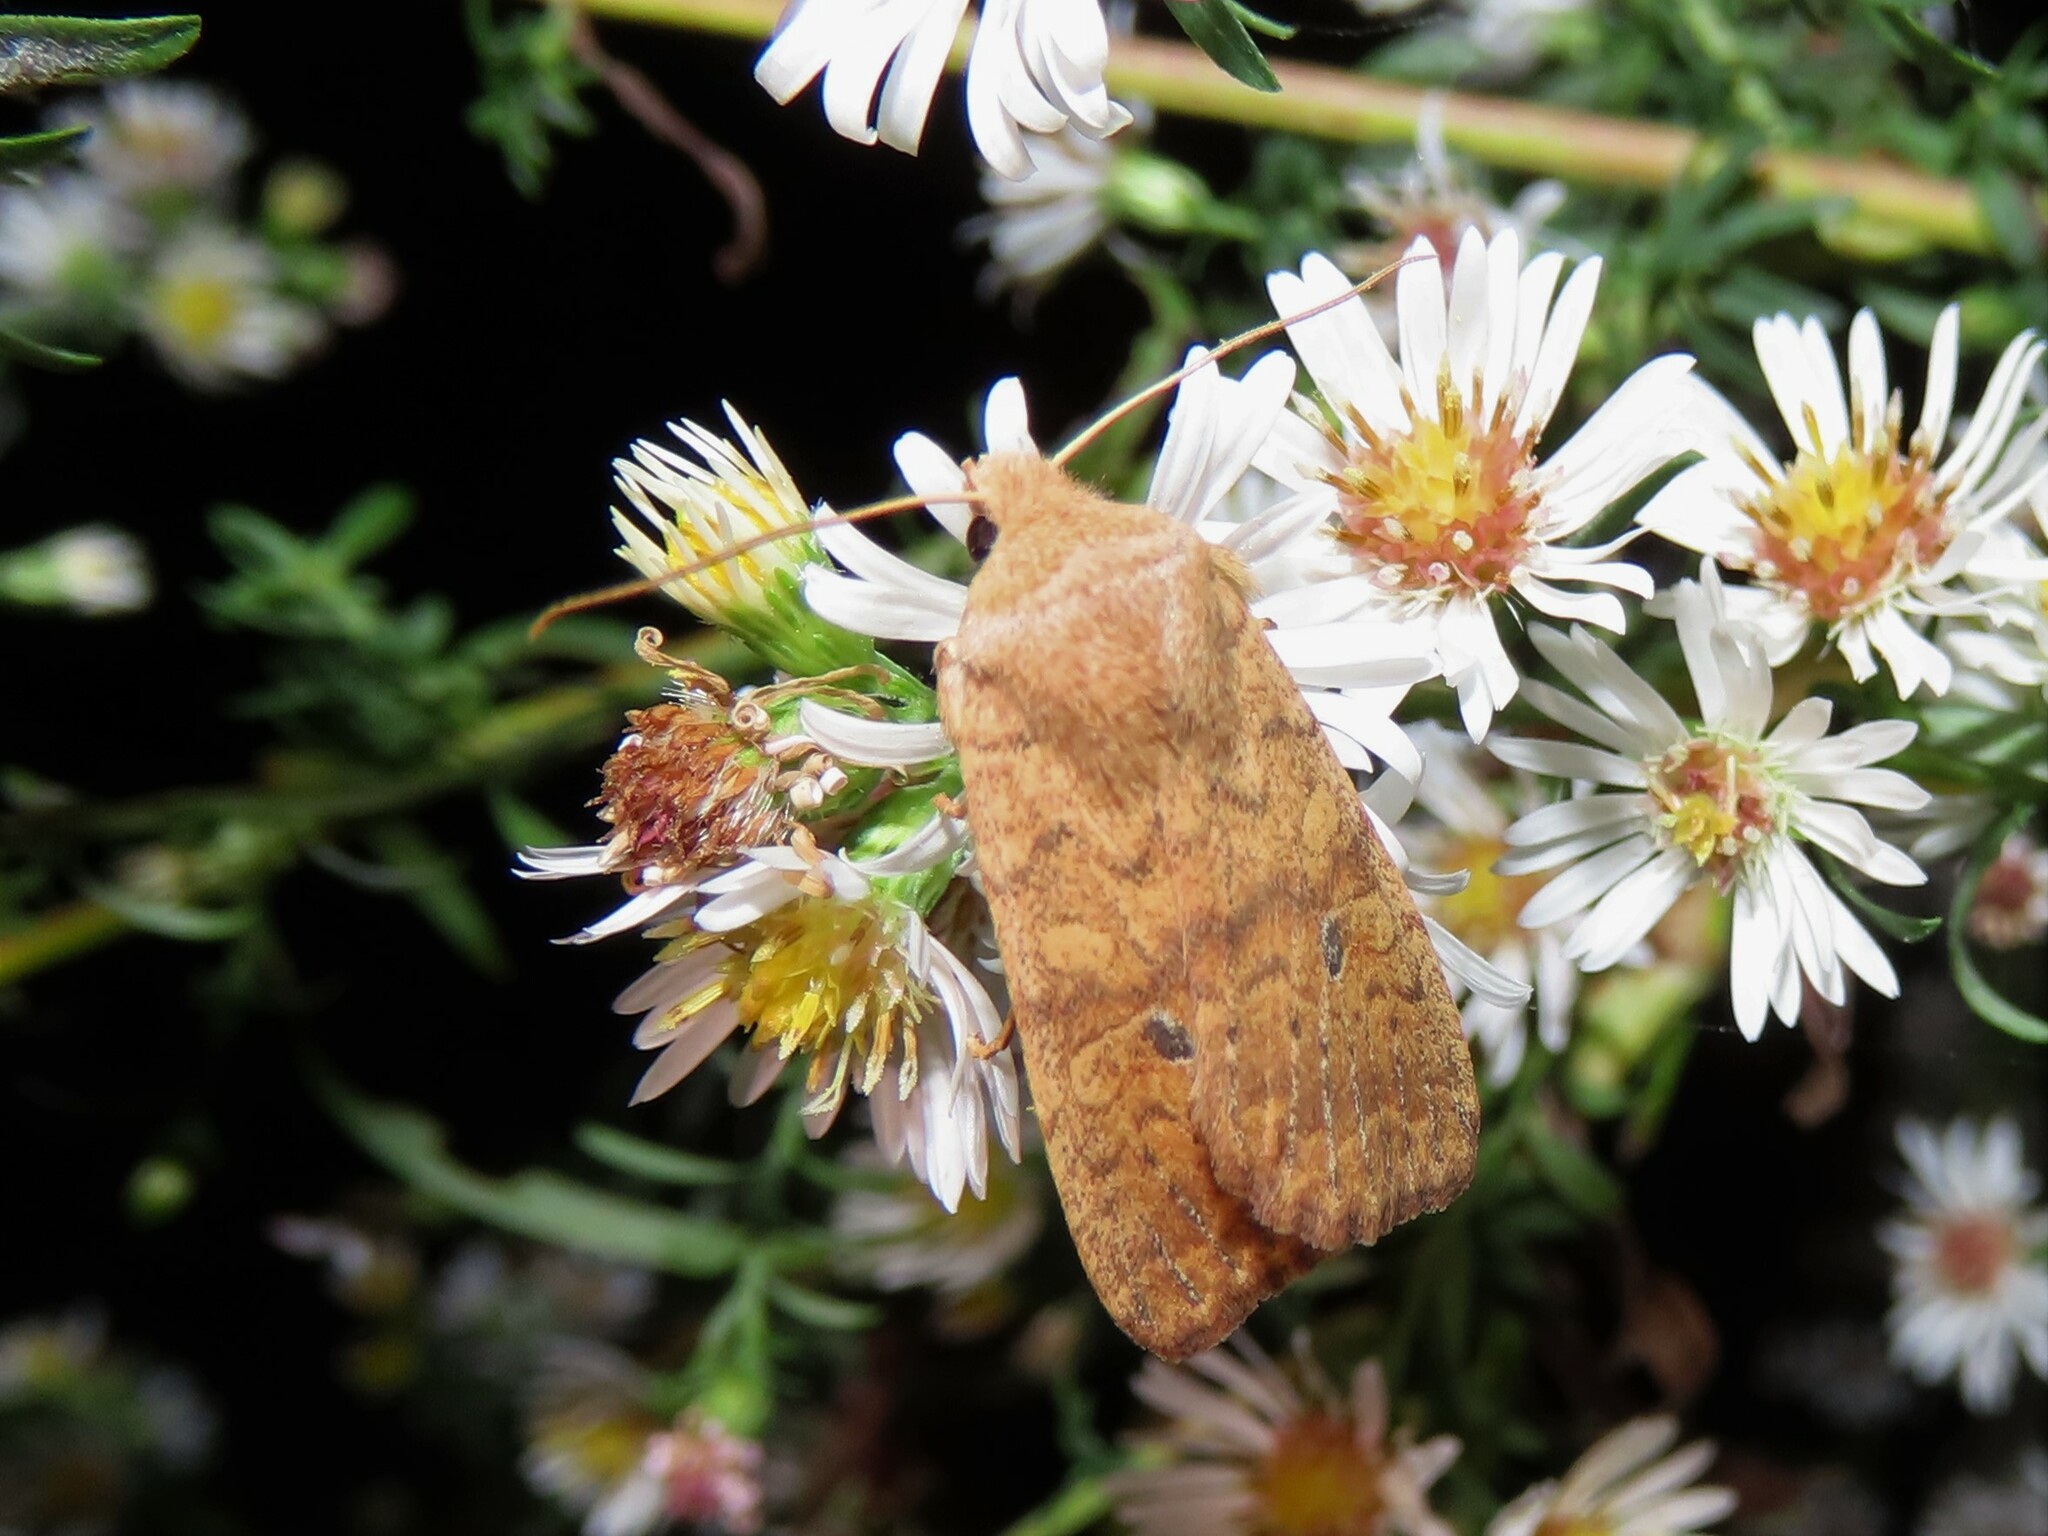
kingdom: Animalia
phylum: Arthropoda
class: Insecta
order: Lepidoptera
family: Noctuidae
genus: Agrochola
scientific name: Agrochola bicolorago
